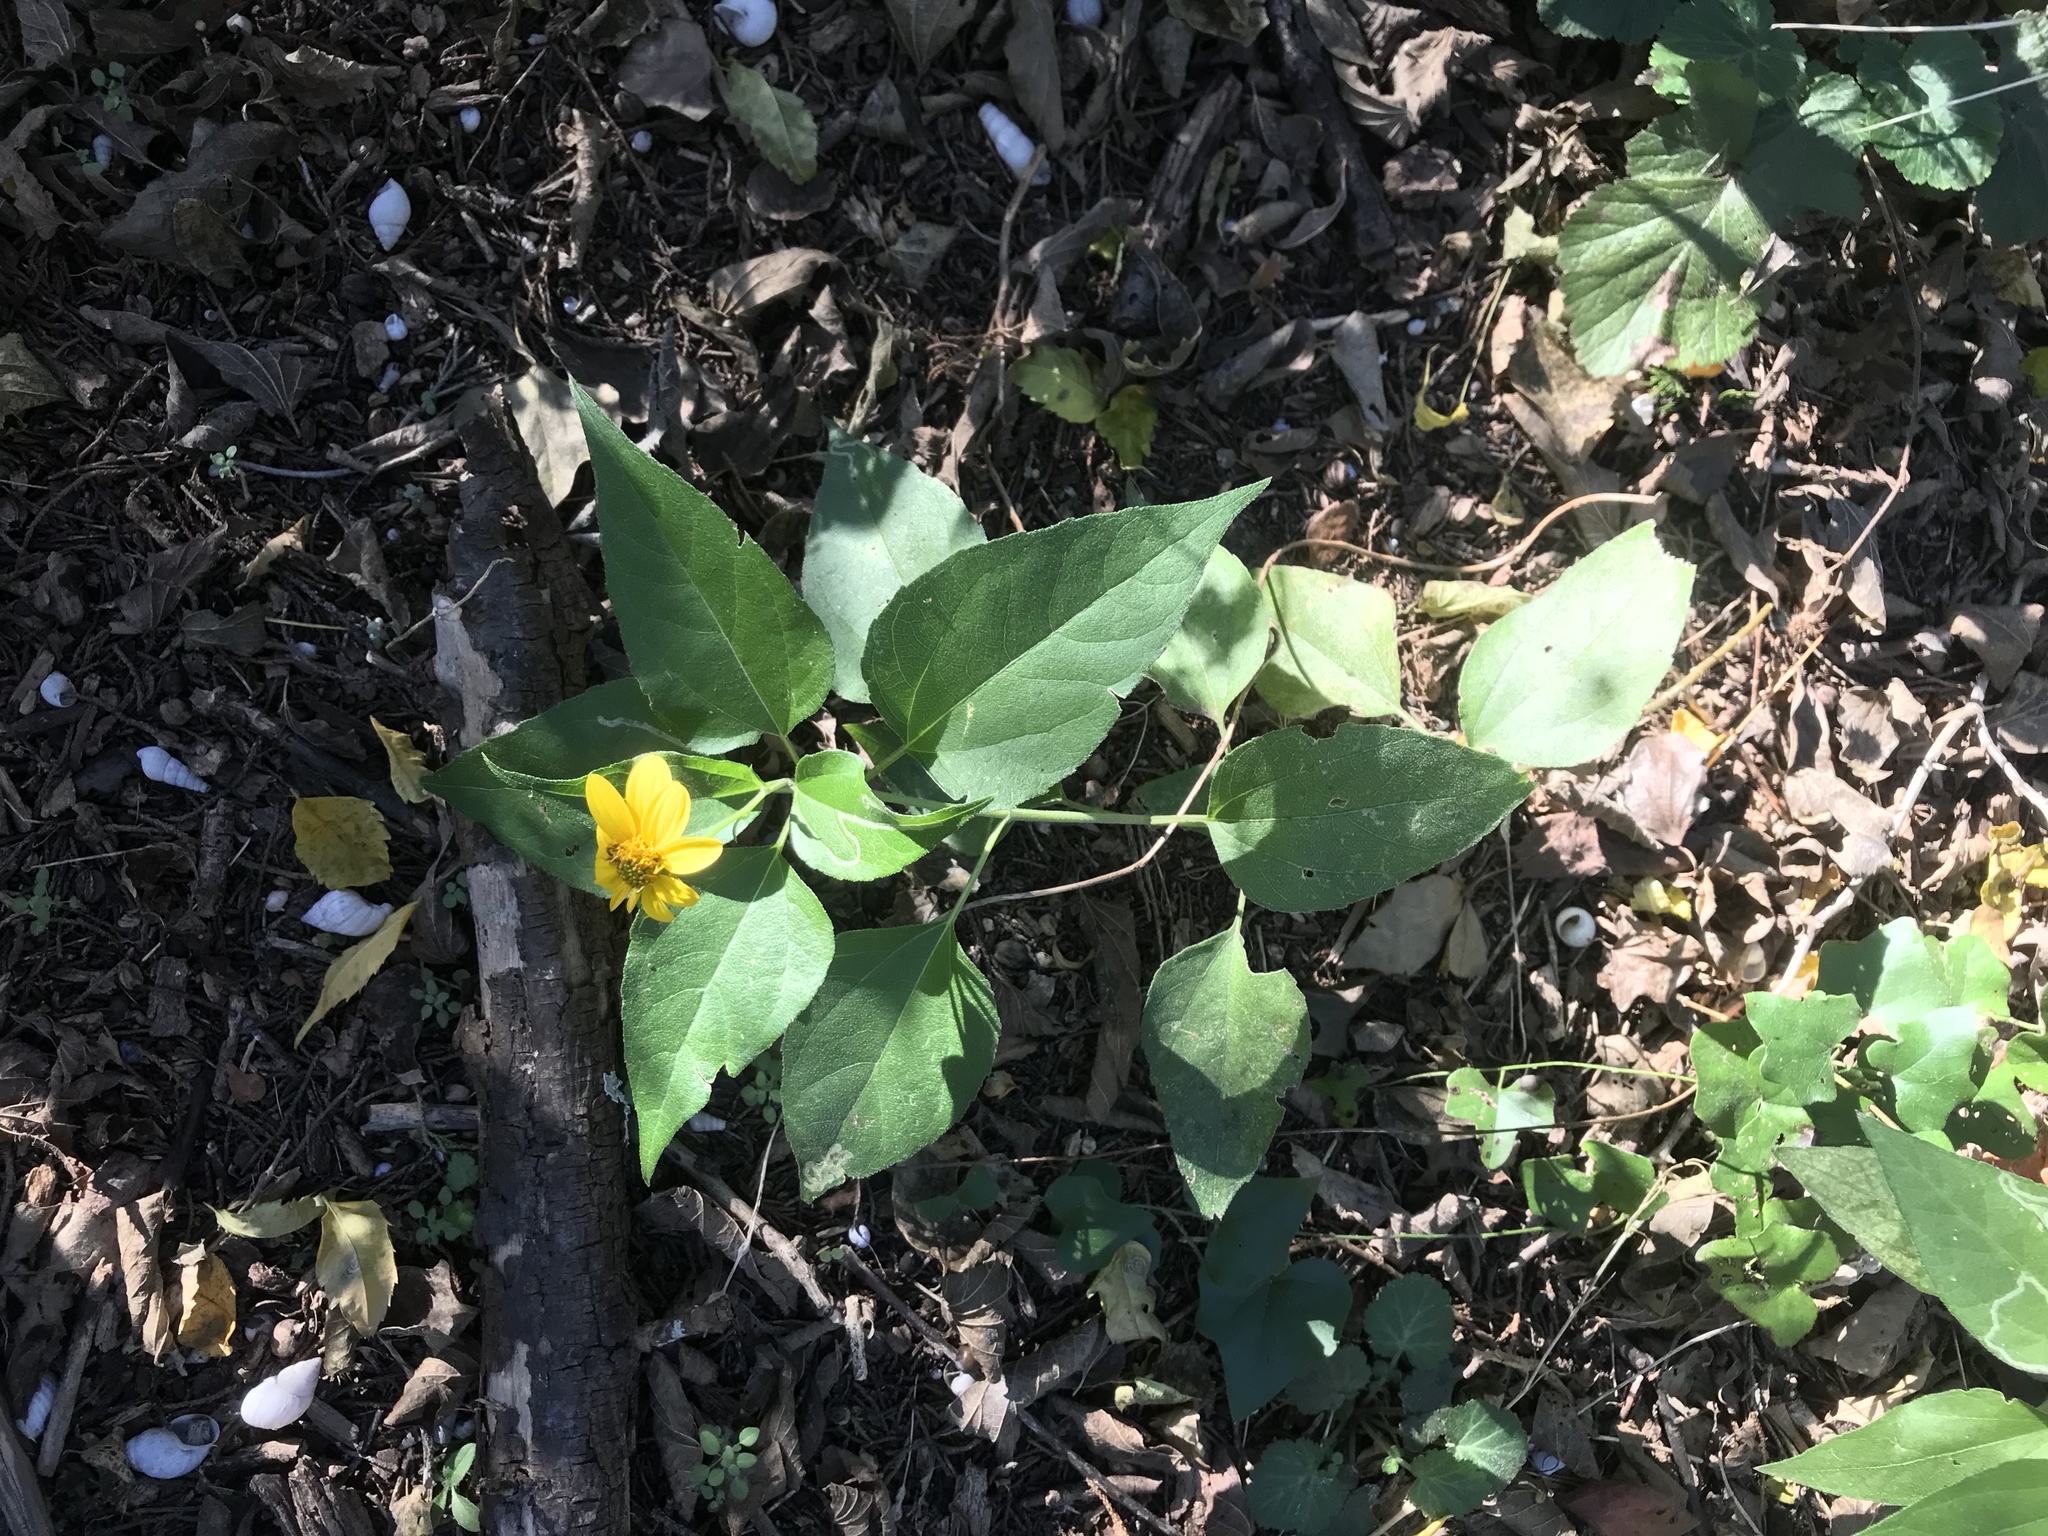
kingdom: Plantae
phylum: Tracheophyta
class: Magnoliopsida
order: Asterales
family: Asteraceae
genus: Viguiera
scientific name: Viguiera dentata
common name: Toothleaf
